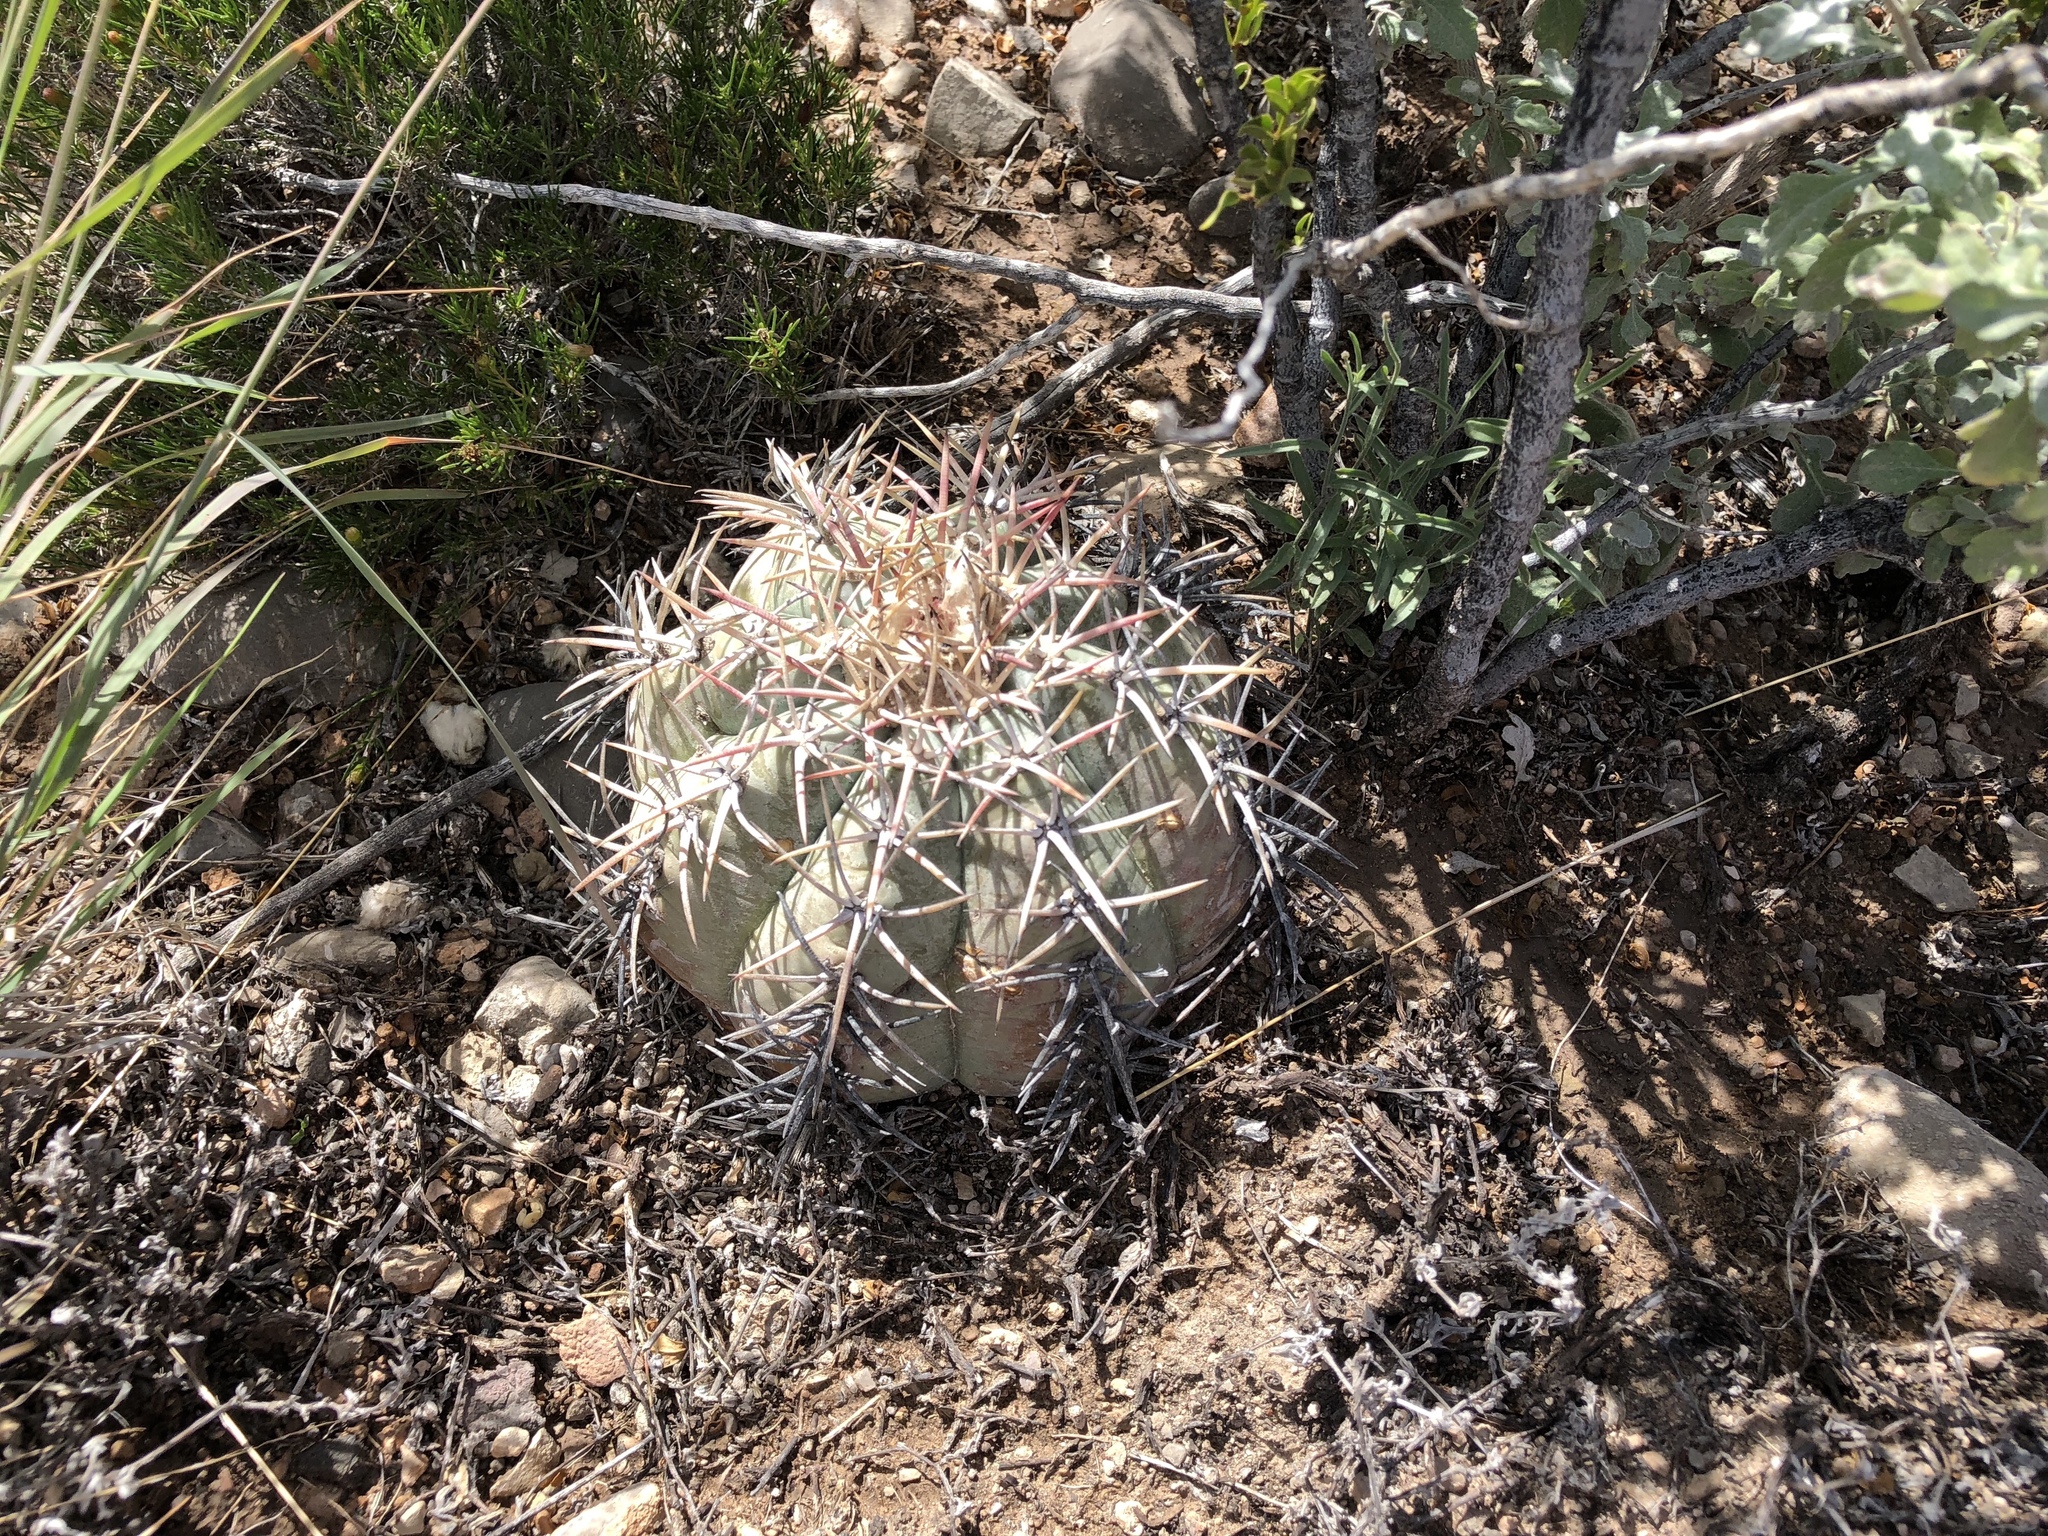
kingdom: Plantae
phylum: Tracheophyta
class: Magnoliopsida
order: Caryophyllales
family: Cactaceae
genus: Echinocactus
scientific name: Echinocactus horizonthalonius
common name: Devilshead
